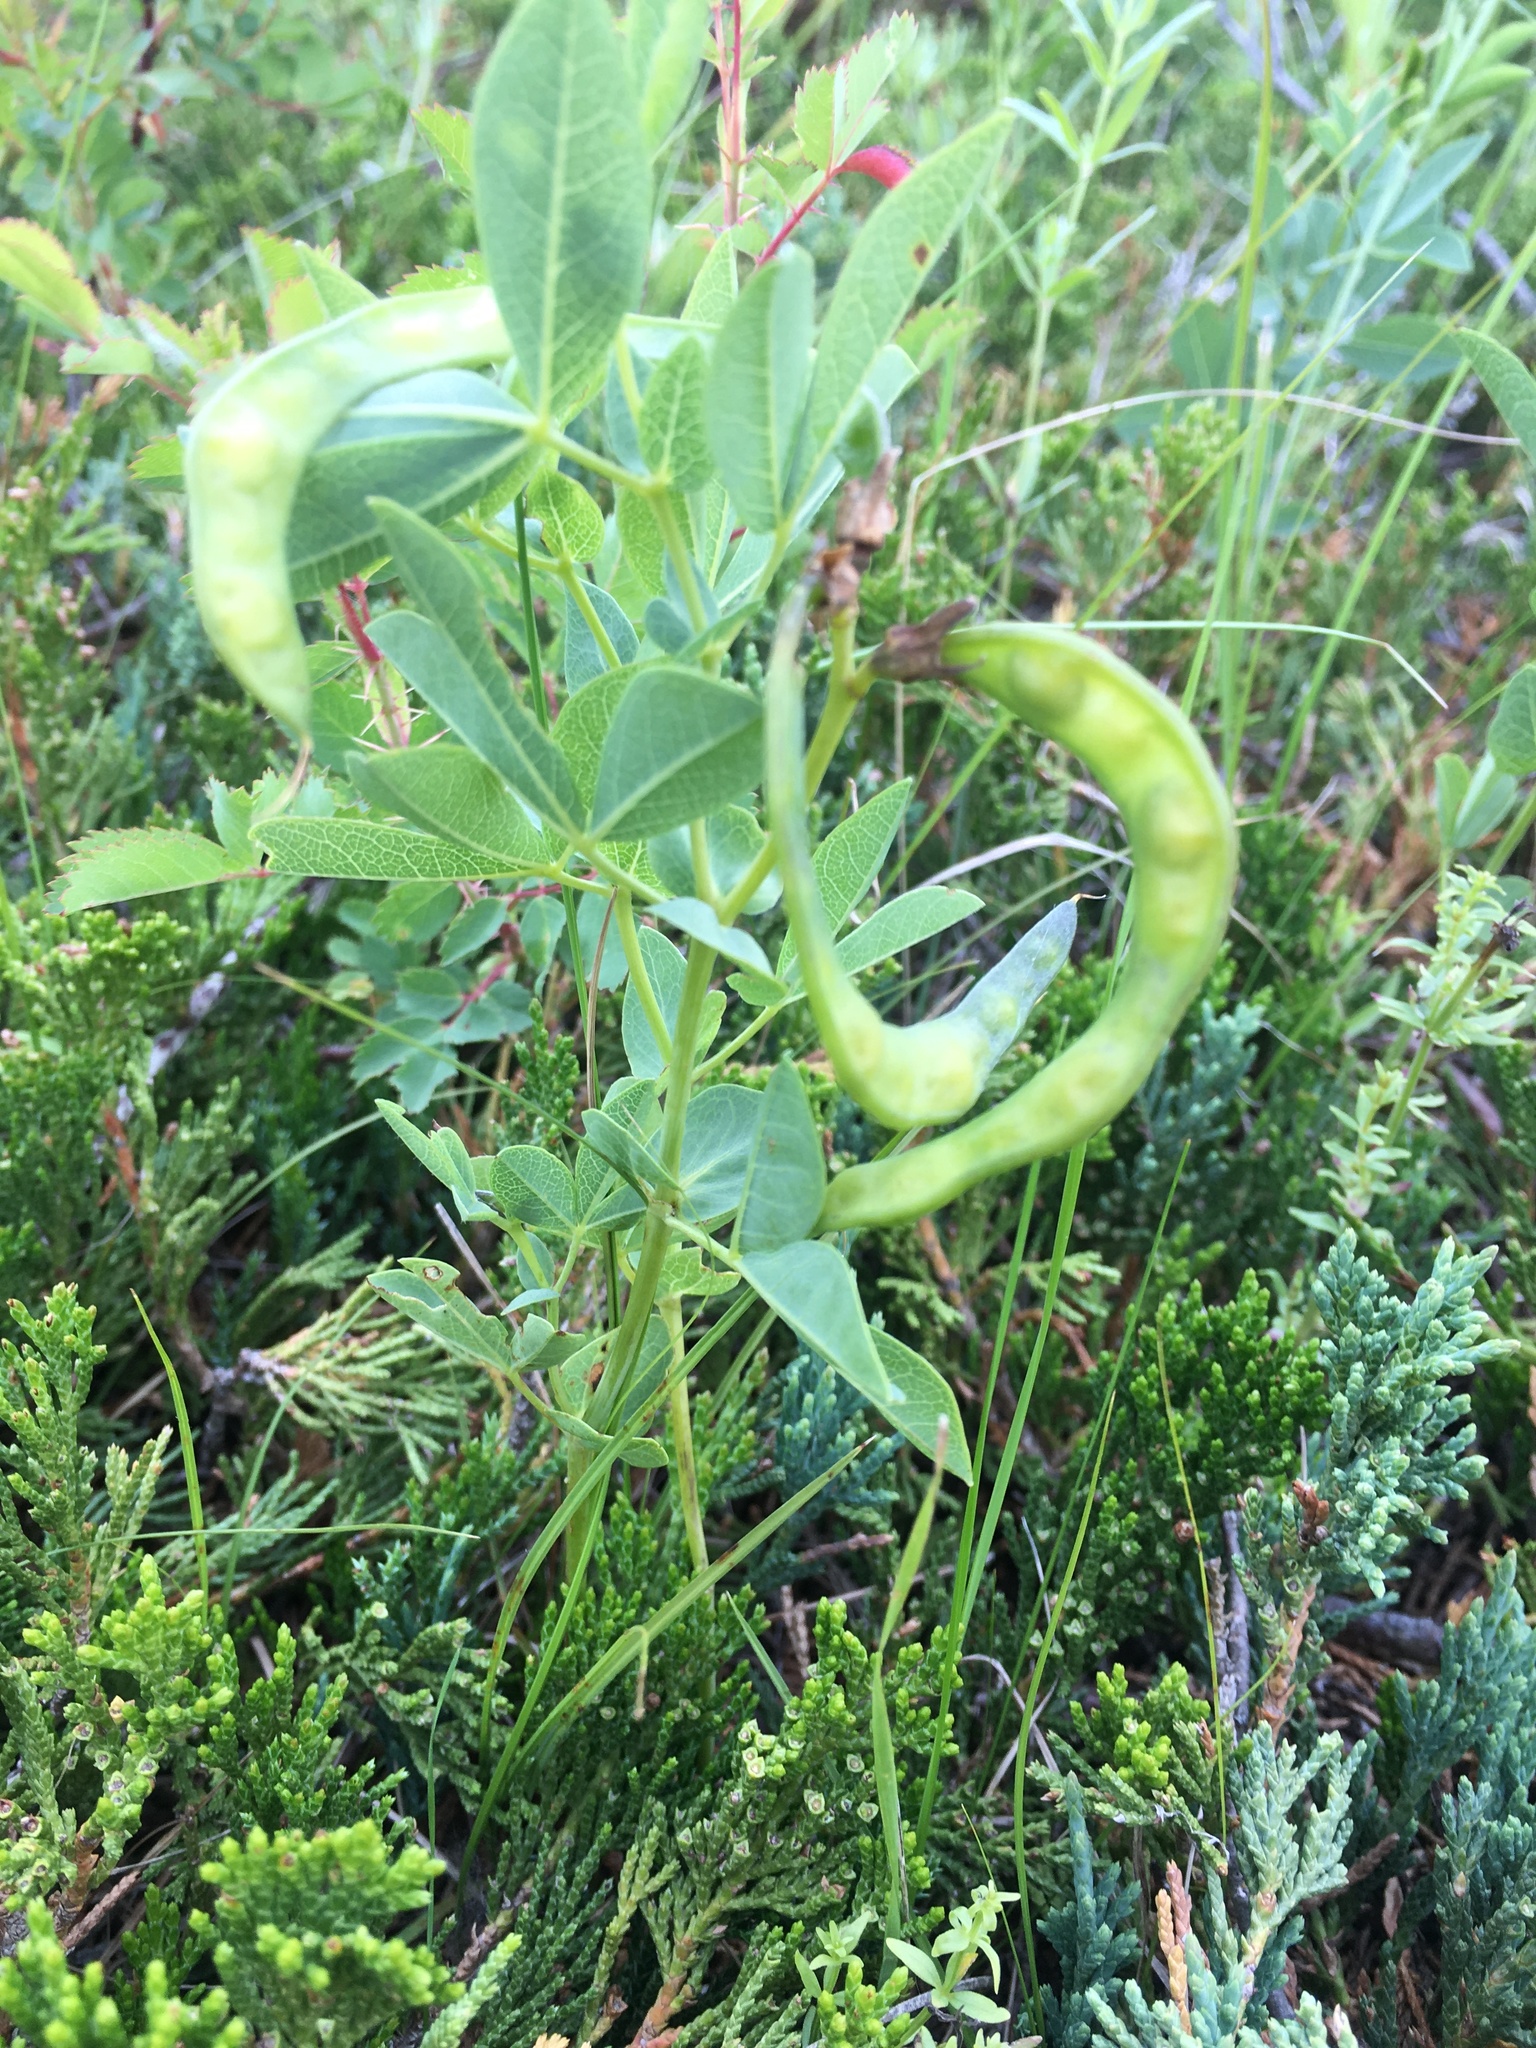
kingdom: Plantae
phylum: Tracheophyta
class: Magnoliopsida
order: Fabales
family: Fabaceae
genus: Thermopsis
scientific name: Thermopsis rhombifolia
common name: Circle-pod-pea
